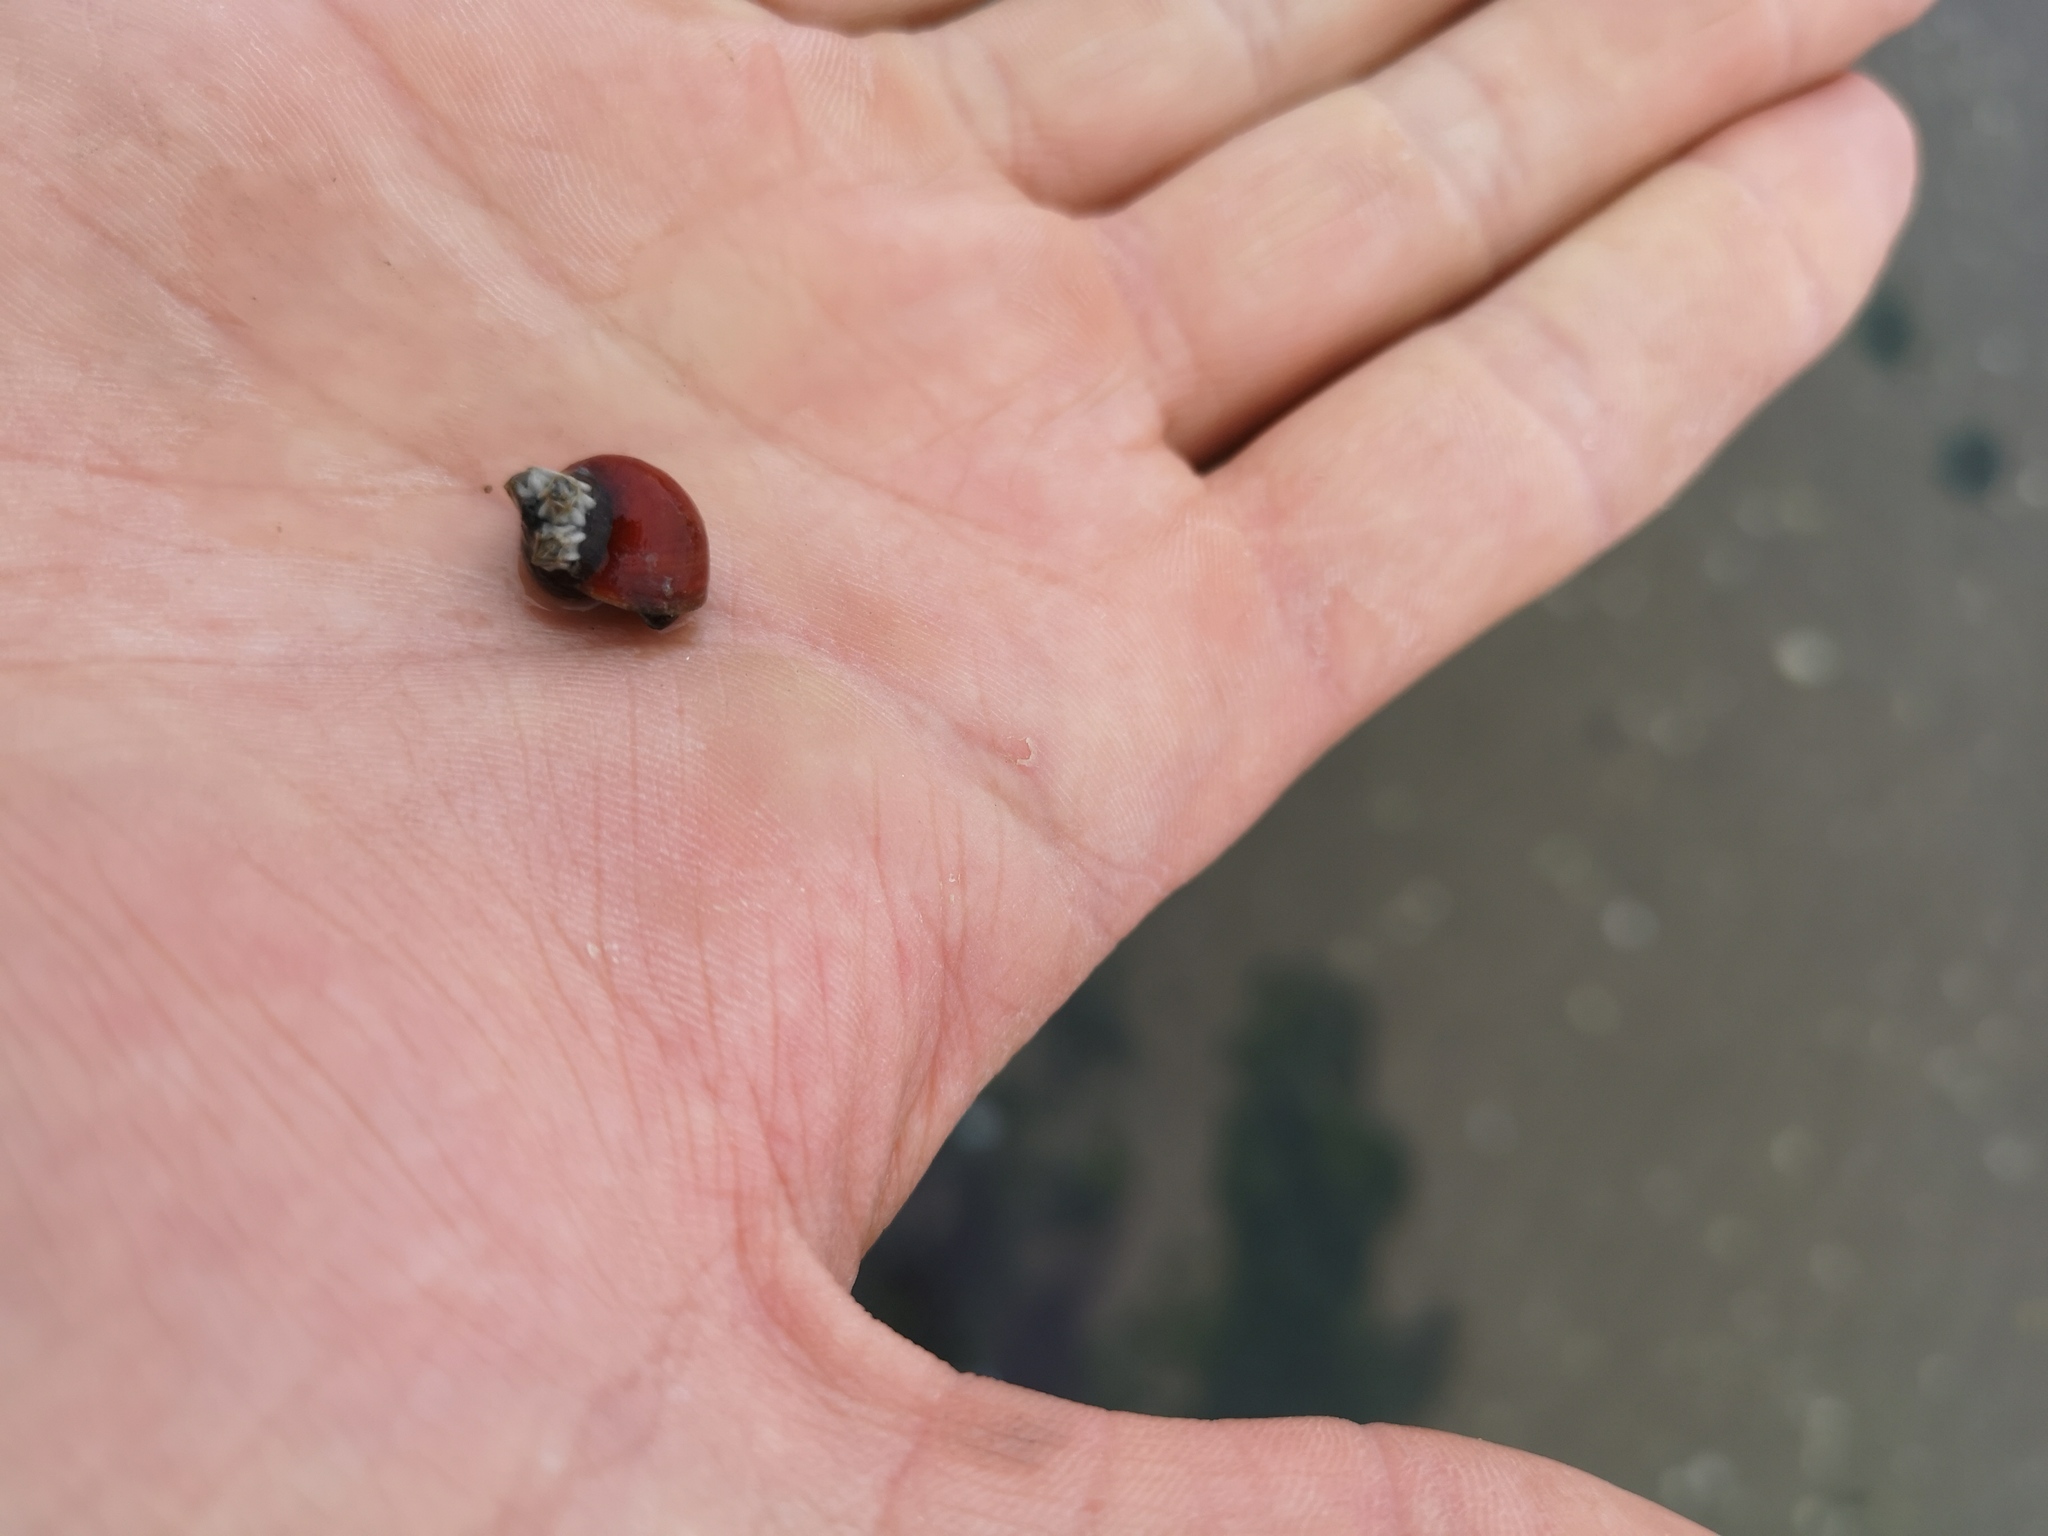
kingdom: Animalia
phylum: Mollusca
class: Gastropoda
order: Littorinimorpha
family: Littorinidae
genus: Littorina
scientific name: Littorina littorea
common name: Common periwinkle
